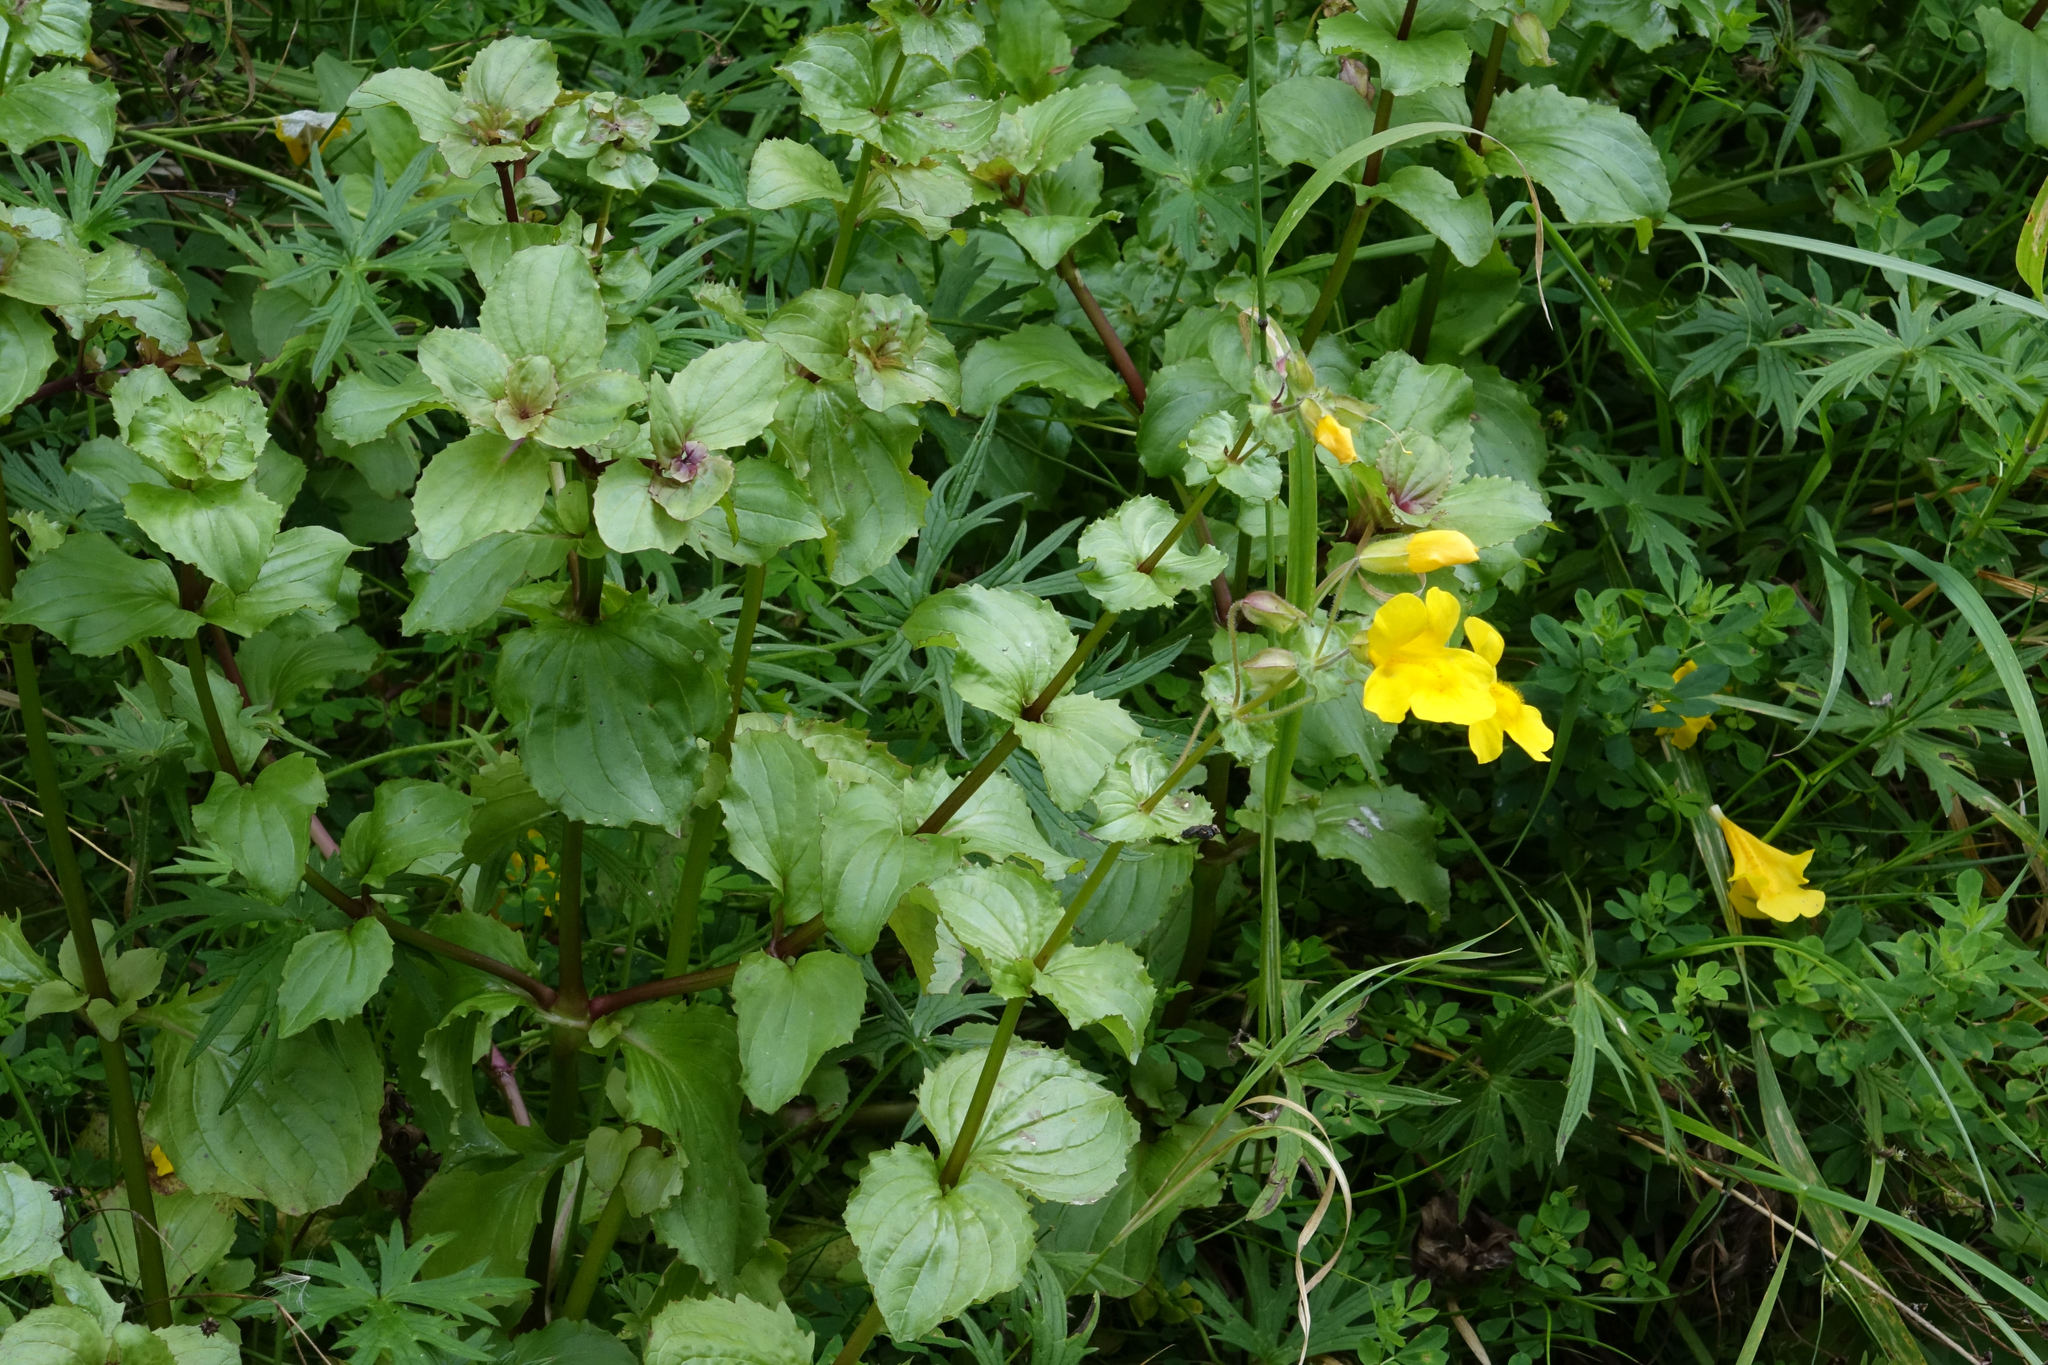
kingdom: Plantae
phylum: Tracheophyta
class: Magnoliopsida
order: Lamiales
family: Phrymaceae
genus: Erythranthe
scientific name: Erythranthe guttata
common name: Monkeyflower
